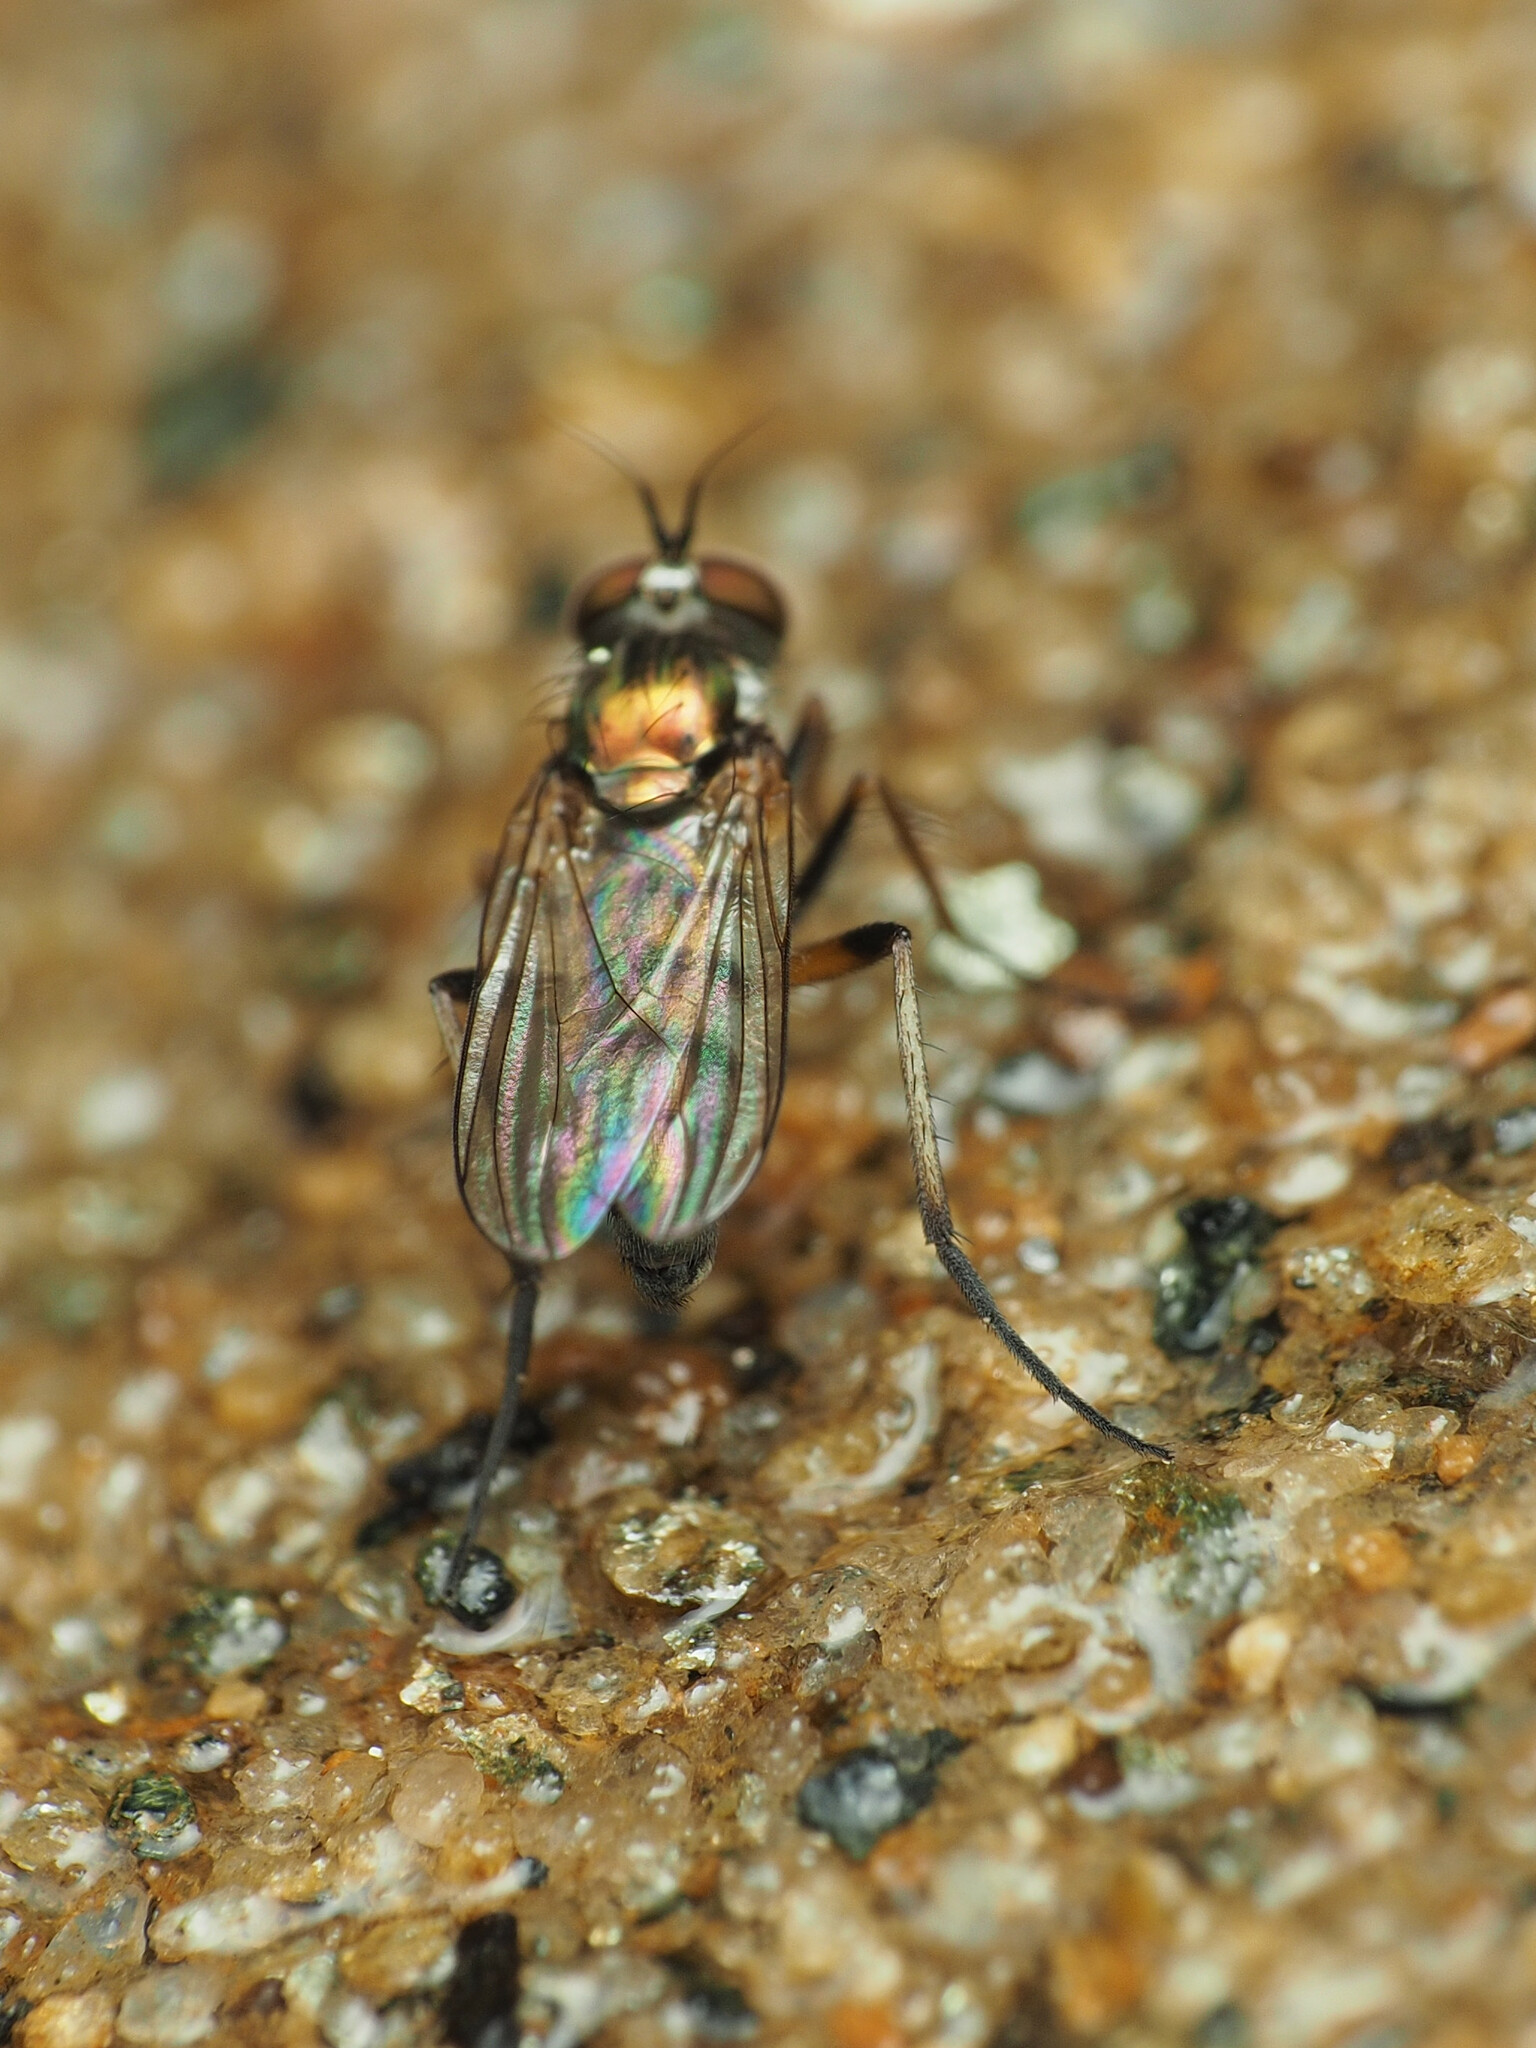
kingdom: Animalia
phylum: Arthropoda
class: Insecta
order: Diptera
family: Dolichopodidae
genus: Rhaphium
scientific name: Rhaphium vanduzeei
